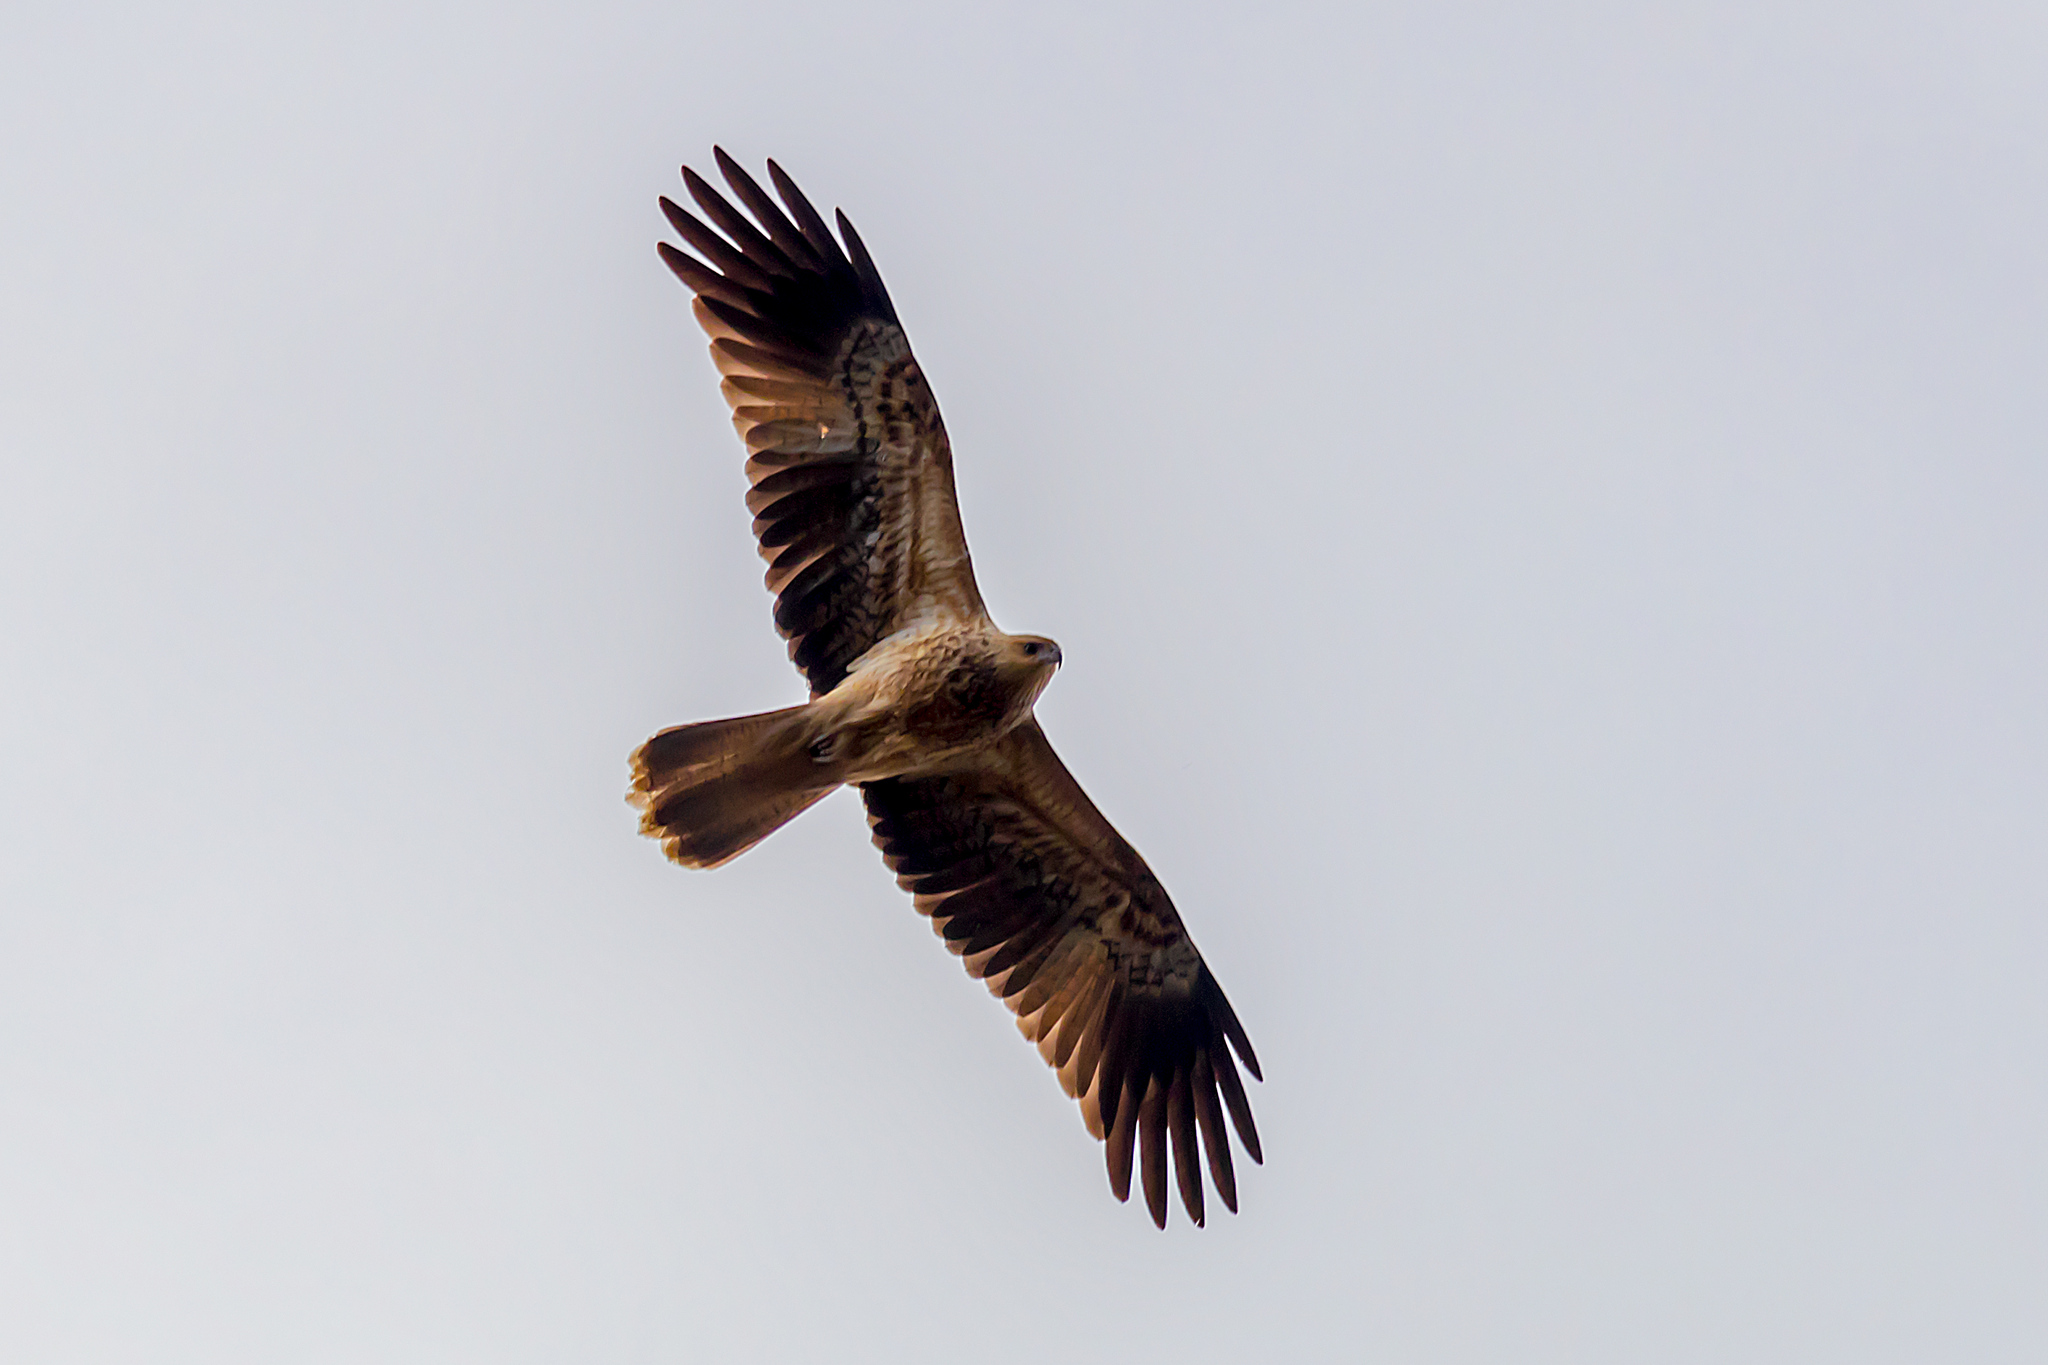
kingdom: Animalia
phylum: Chordata
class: Aves
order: Accipitriformes
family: Accipitridae
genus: Haliastur
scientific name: Haliastur sphenurus
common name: Whistling kite
